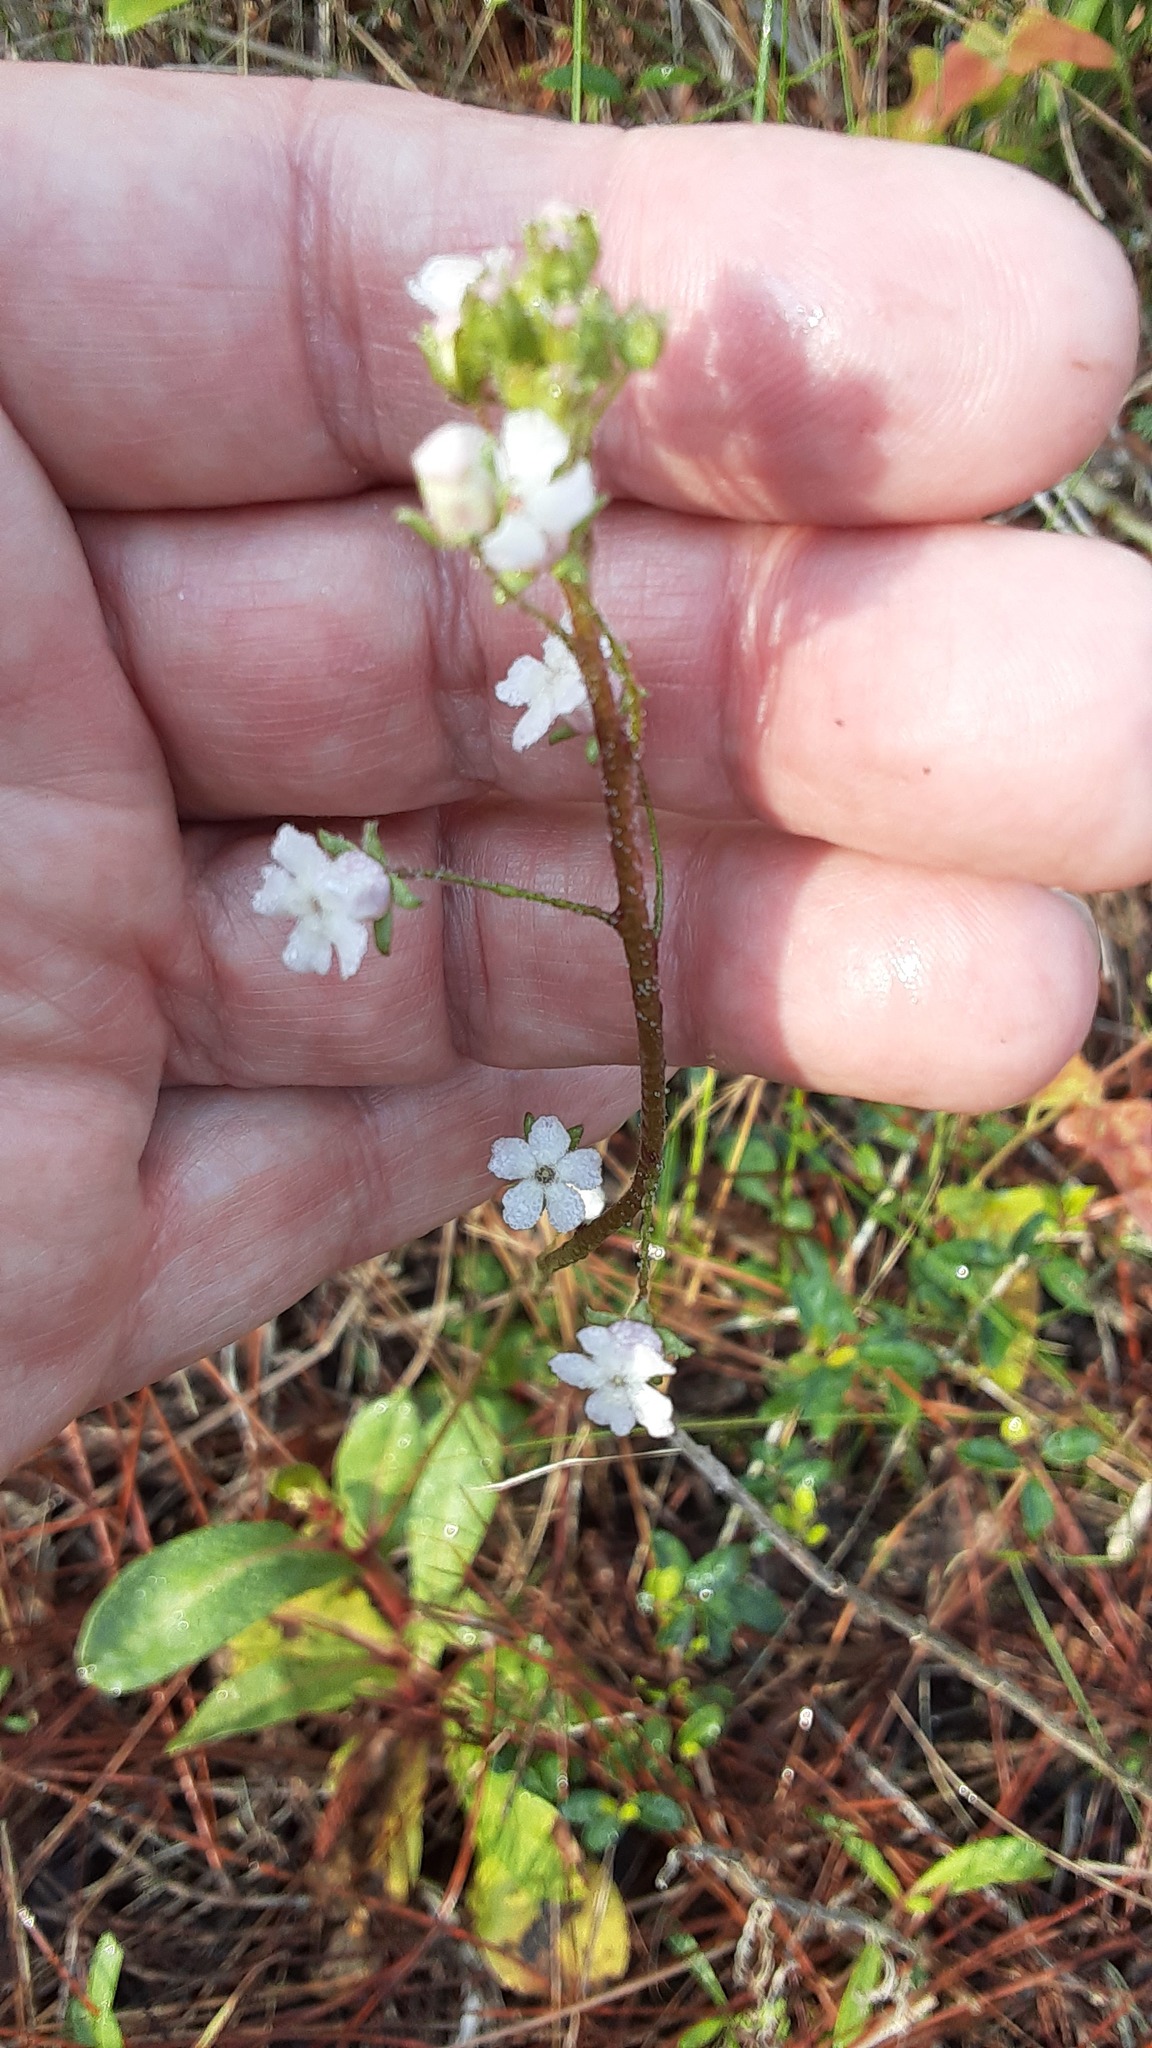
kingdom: Plantae
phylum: Tracheophyta
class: Magnoliopsida
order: Ericales
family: Primulaceae
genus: Samolus
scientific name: Samolus ebracteatus
